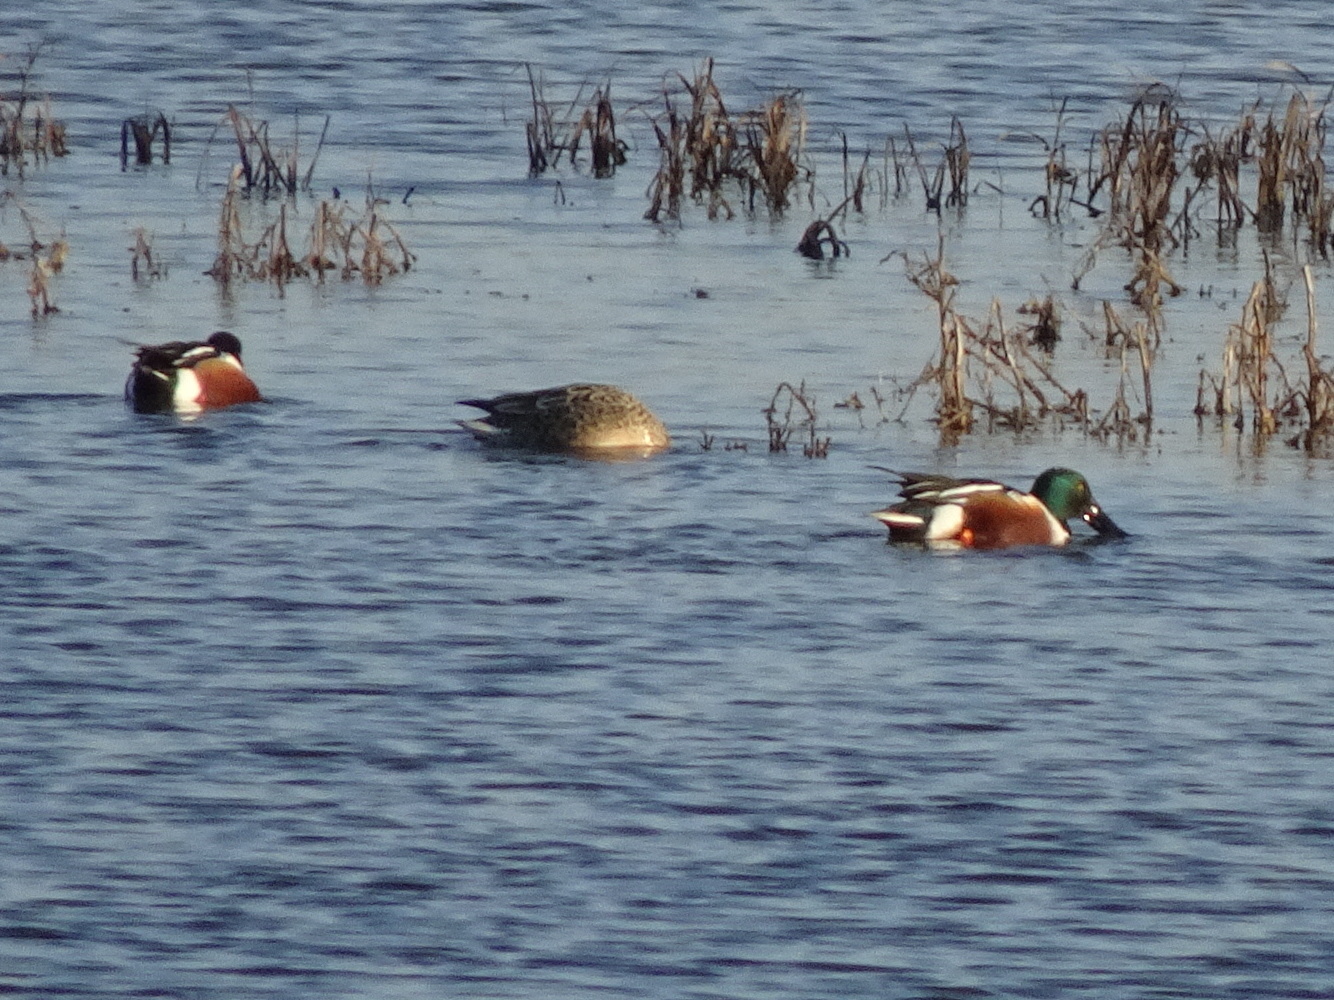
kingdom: Animalia
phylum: Chordata
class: Aves
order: Anseriformes
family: Anatidae
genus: Spatula
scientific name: Spatula clypeata
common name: Northern shoveler
